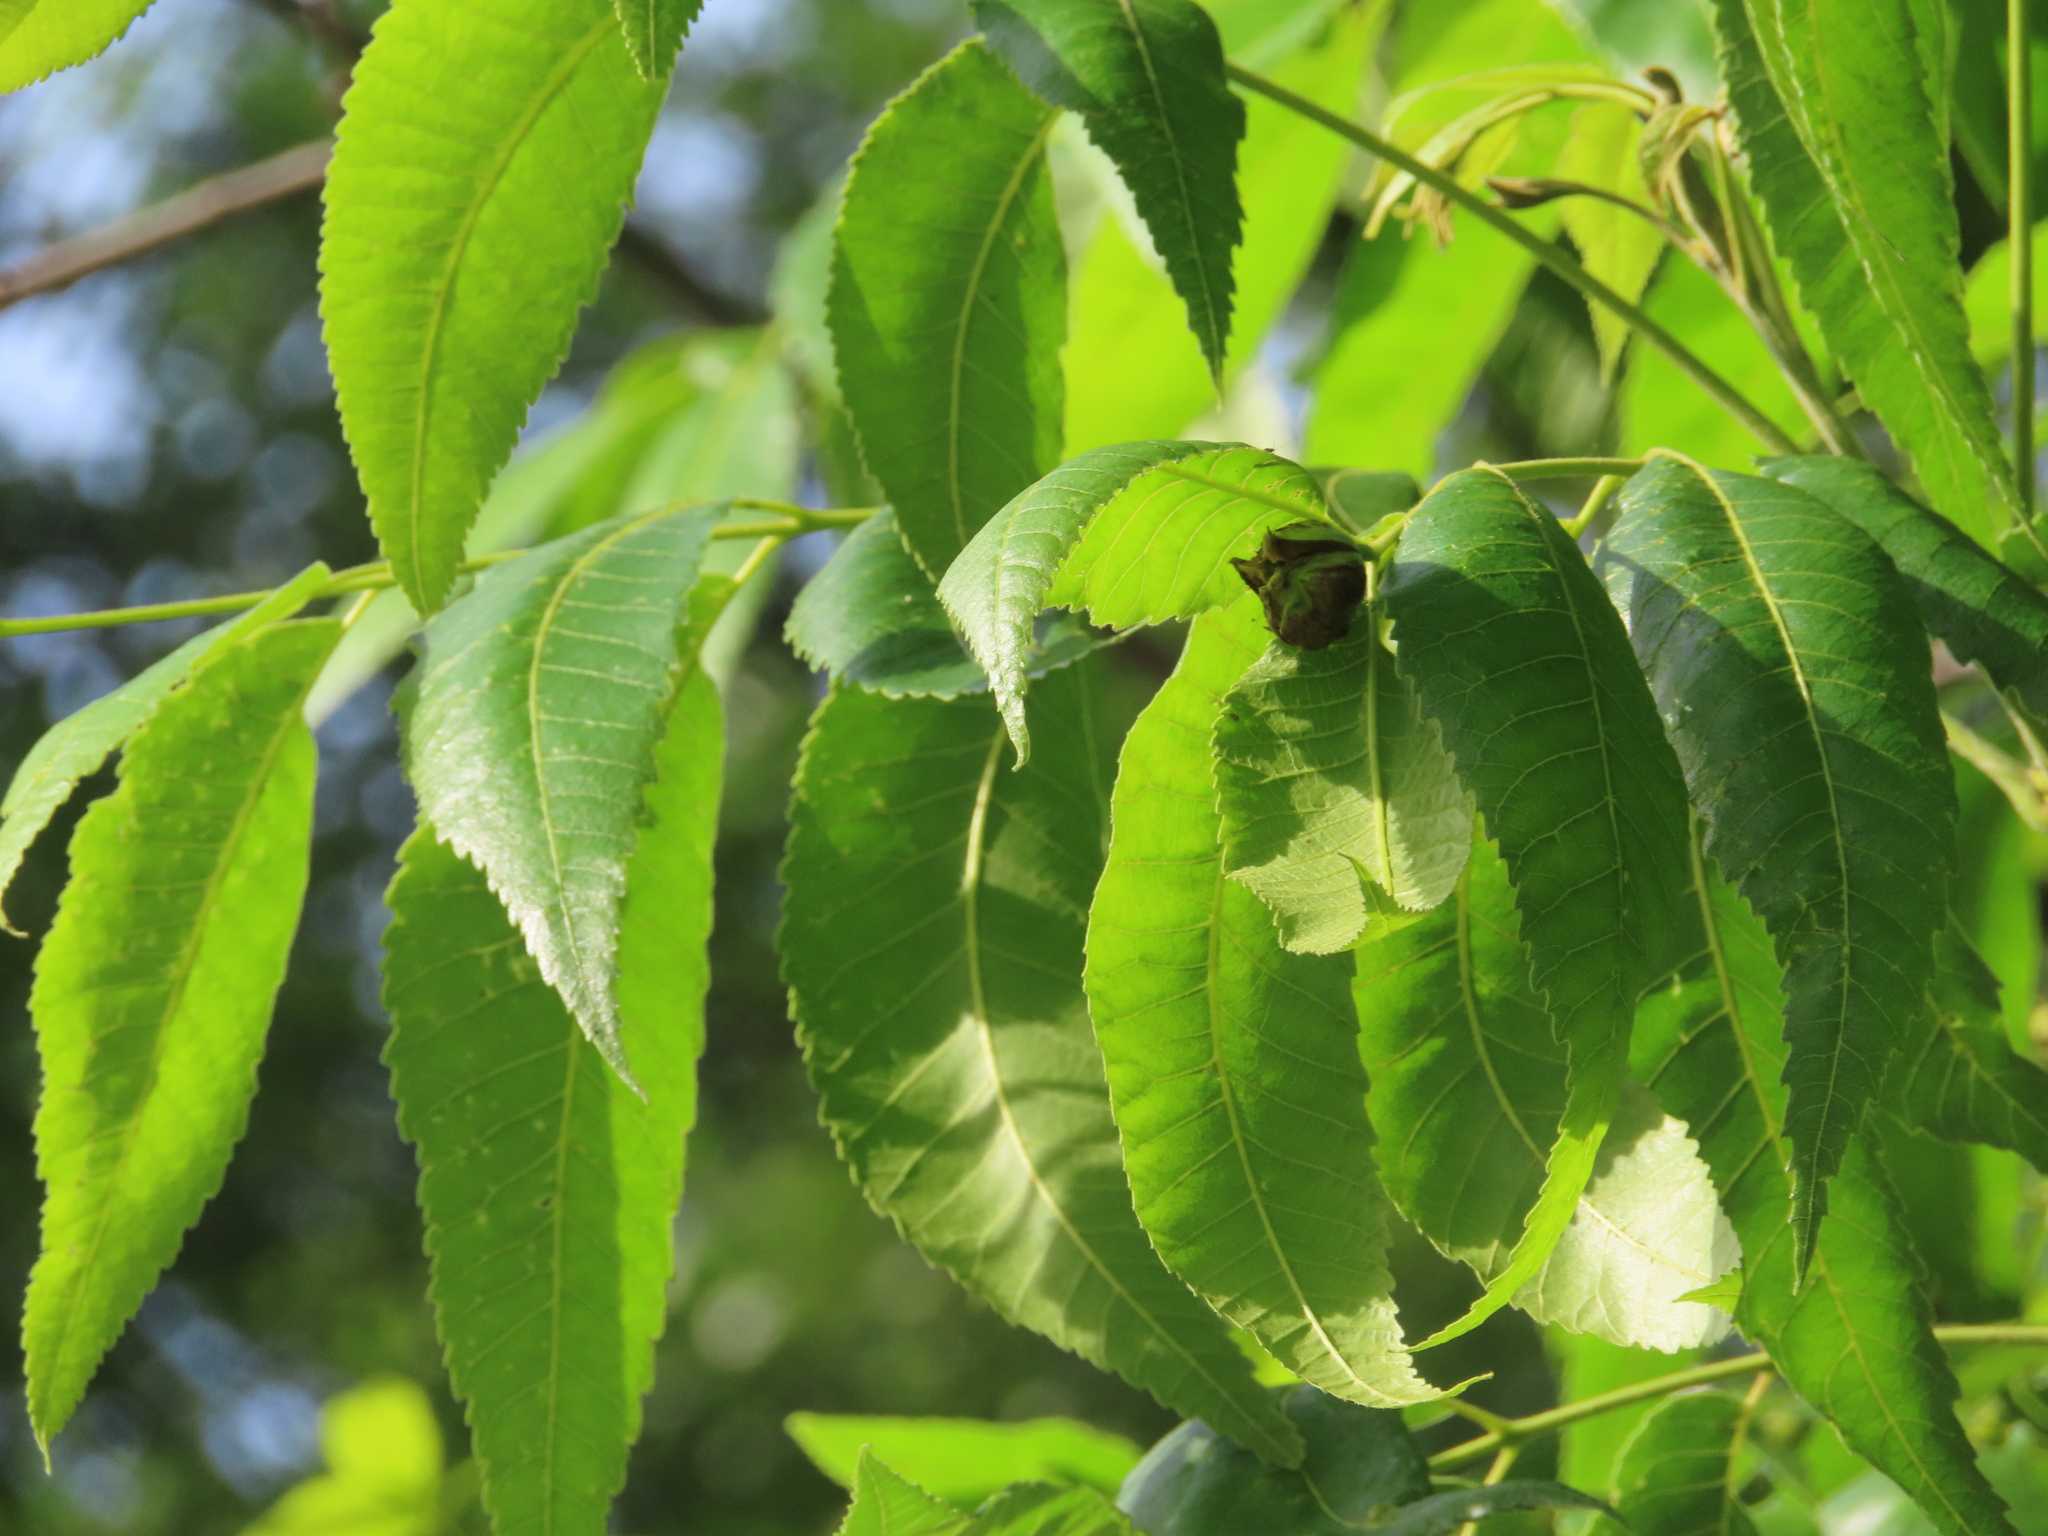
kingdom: Animalia
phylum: Arthropoda
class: Insecta
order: Hemiptera
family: Phylloxeridae
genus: Daktulosphaira
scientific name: Daktulosphaira notabilis
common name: Pecan leaf phylloxera
